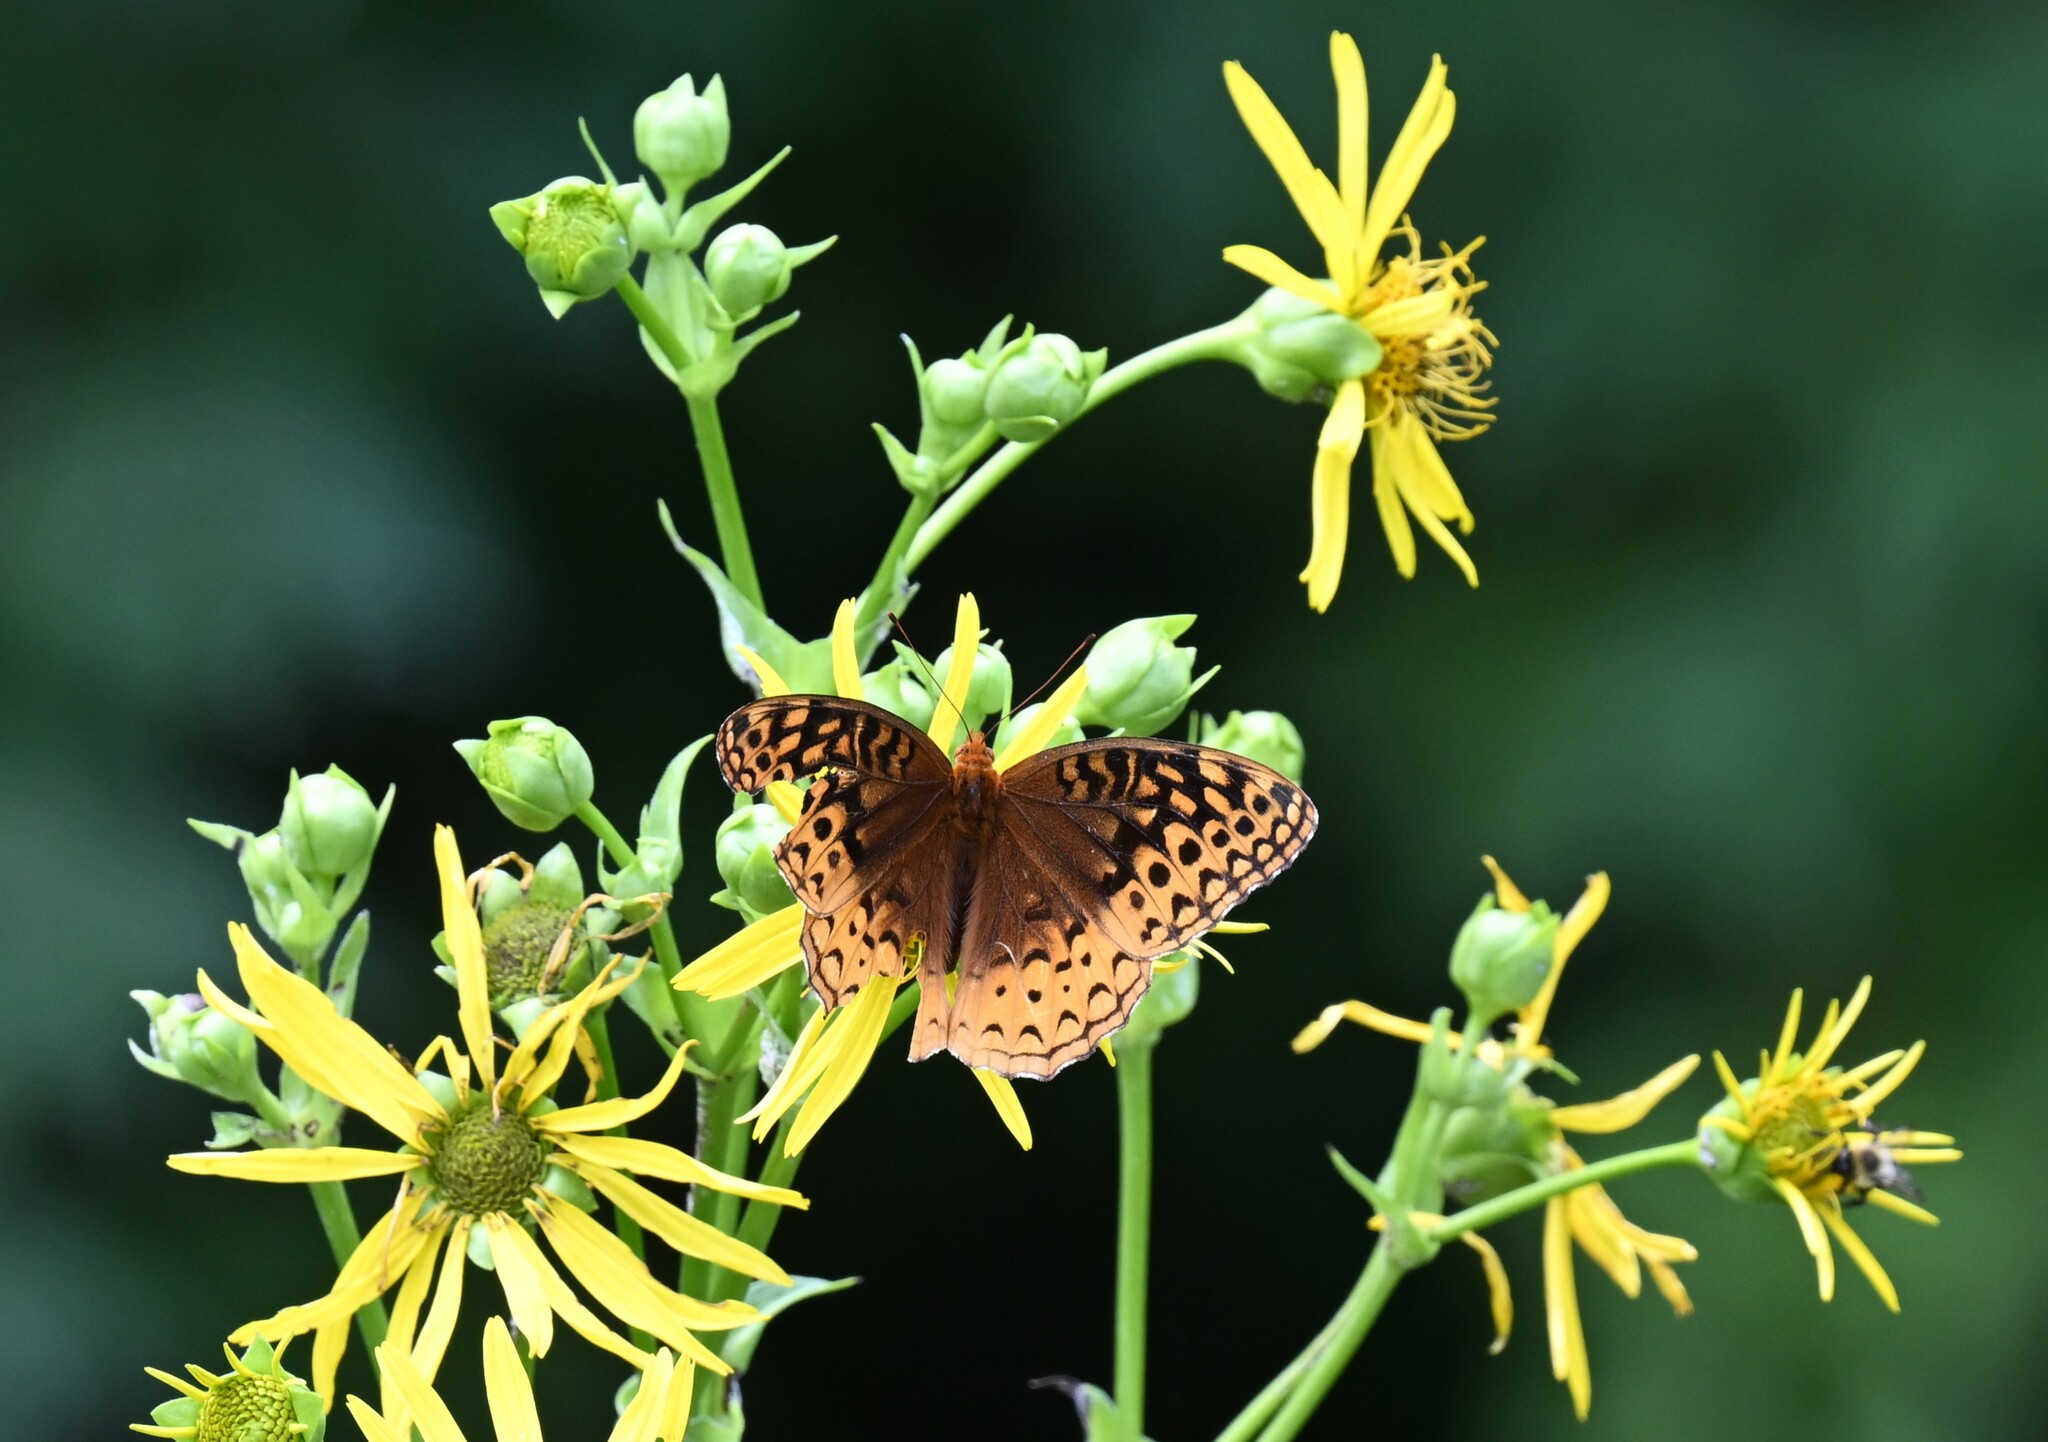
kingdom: Animalia
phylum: Arthropoda
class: Insecta
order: Lepidoptera
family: Nymphalidae
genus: Speyeria
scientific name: Speyeria cybele
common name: Great spangled fritillary
